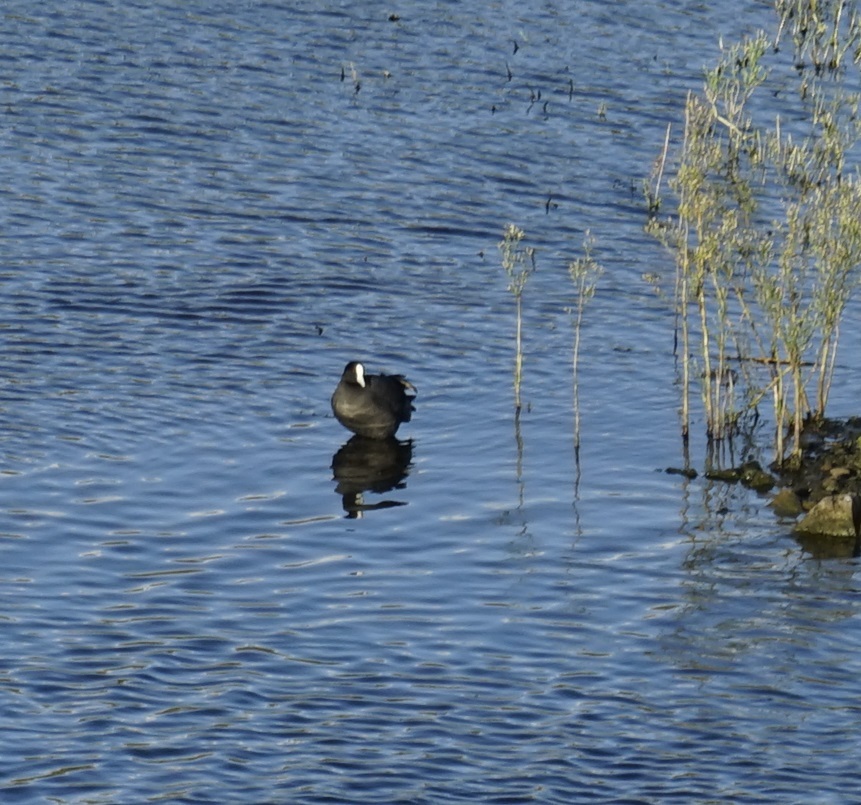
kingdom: Animalia
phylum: Chordata
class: Aves
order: Gruiformes
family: Rallidae
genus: Fulica
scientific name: Fulica atra
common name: Eurasian coot
